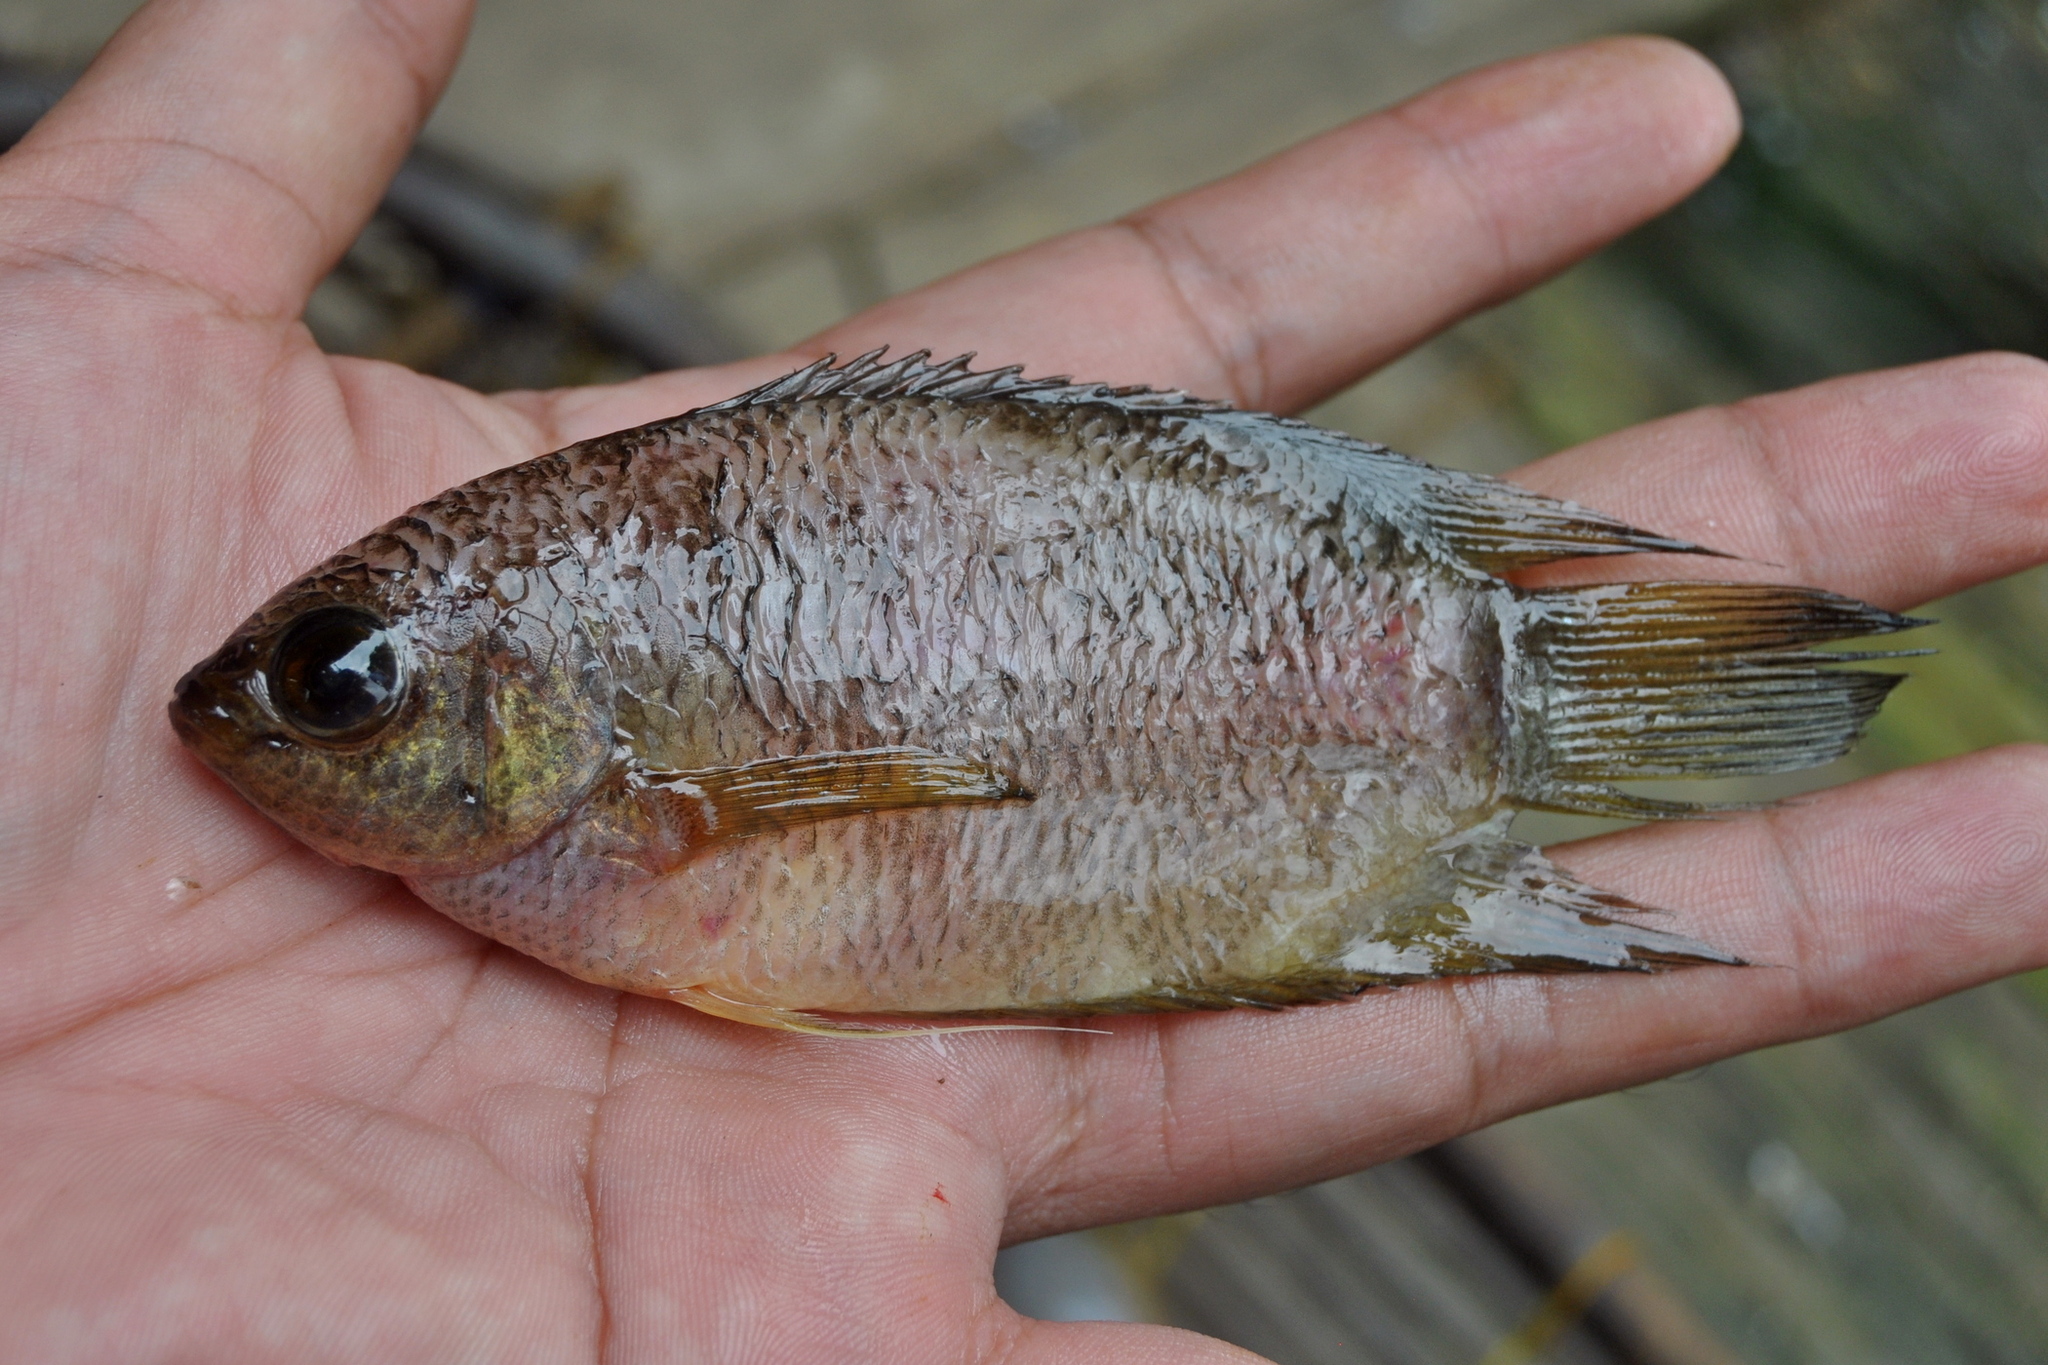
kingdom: Animalia
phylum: Chordata
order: Perciformes
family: Osphronemidae
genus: Belontia
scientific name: Belontia hasselti
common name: Malay combtail
